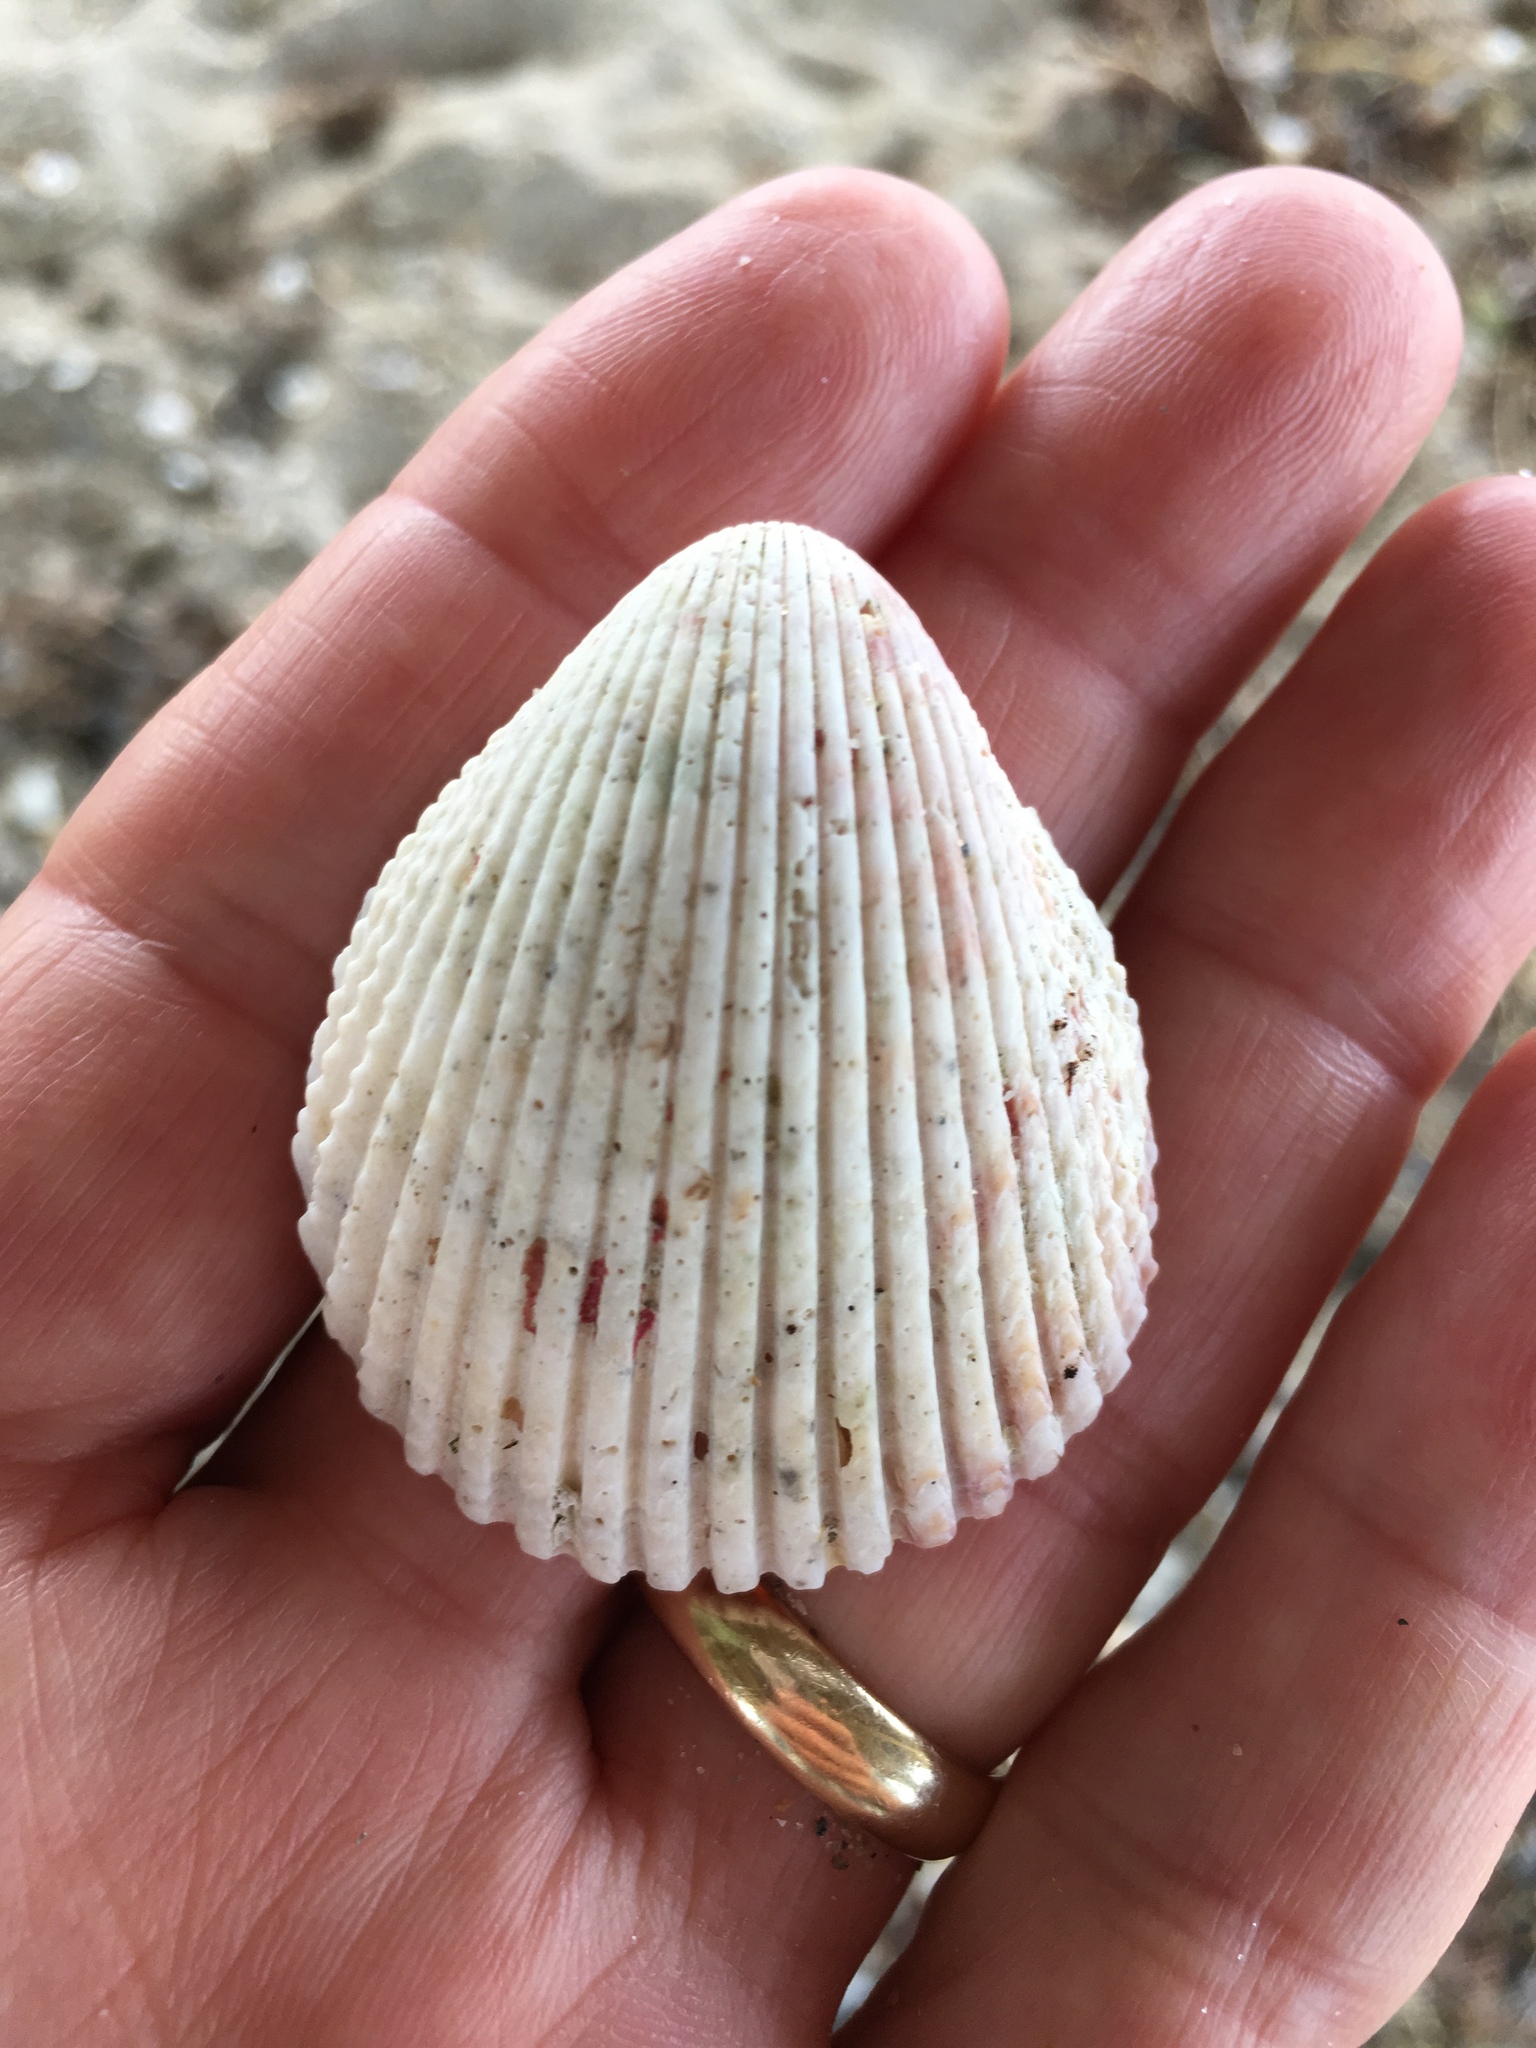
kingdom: Animalia
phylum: Mollusca
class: Bivalvia
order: Cardiida
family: Cardiidae
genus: Trachycardium
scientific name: Trachycardium isocardia
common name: Even pricklycockle
